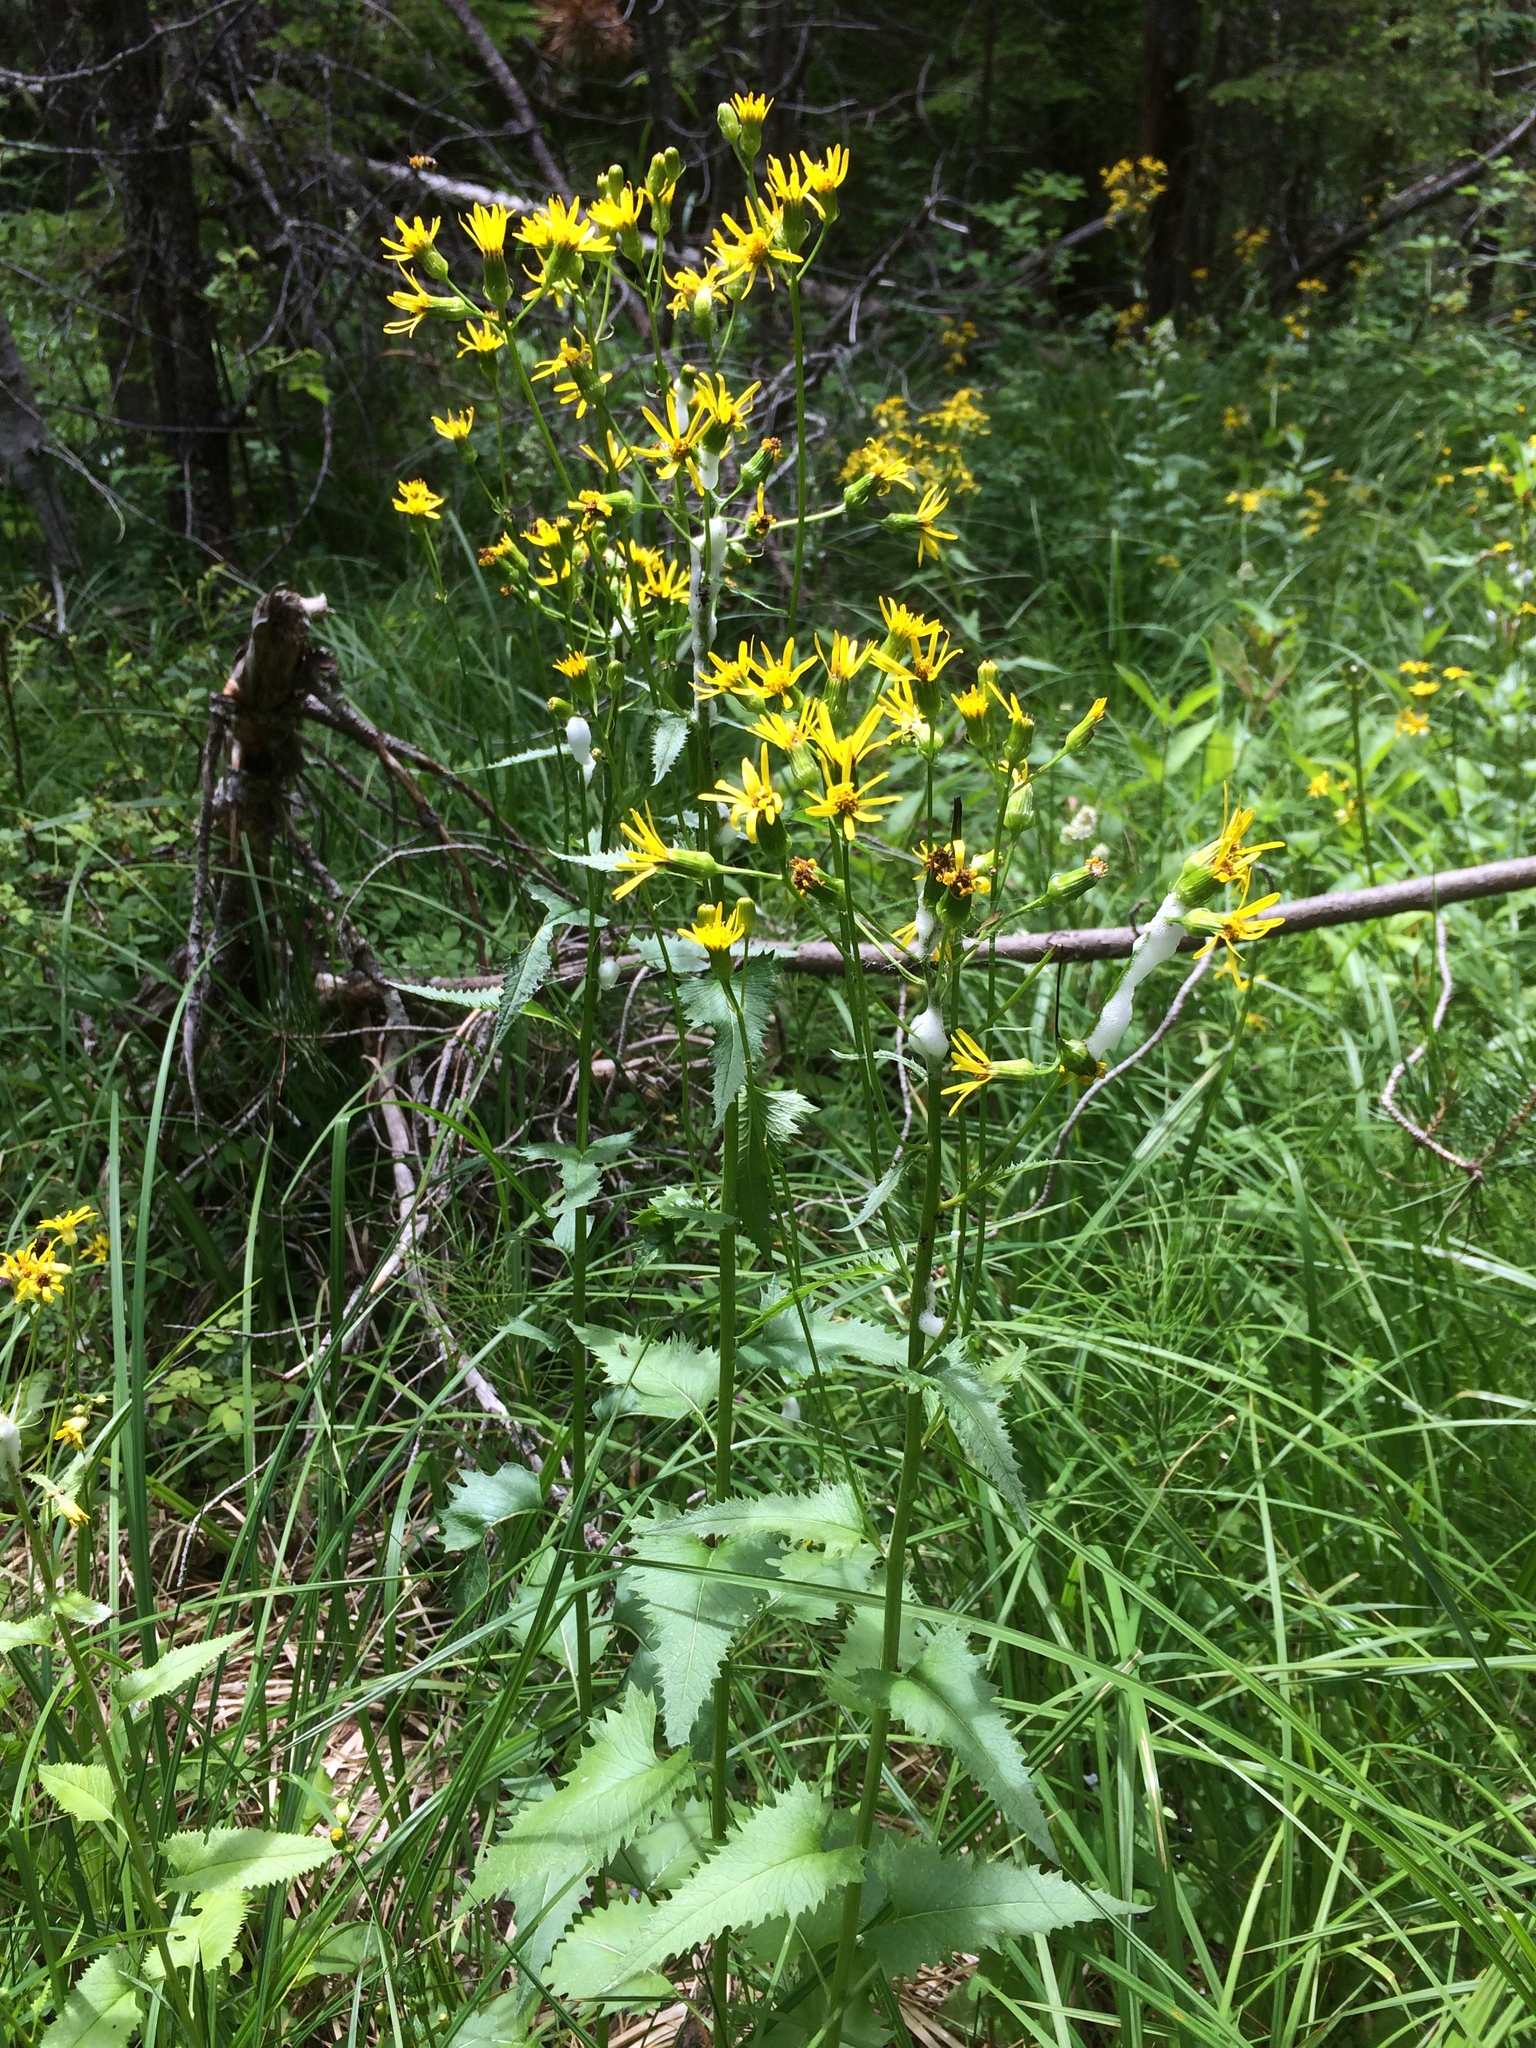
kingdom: Plantae
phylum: Tracheophyta
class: Magnoliopsida
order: Asterales
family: Asteraceae
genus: Senecio
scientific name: Senecio triangularis
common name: Arrowleaf butterweed
